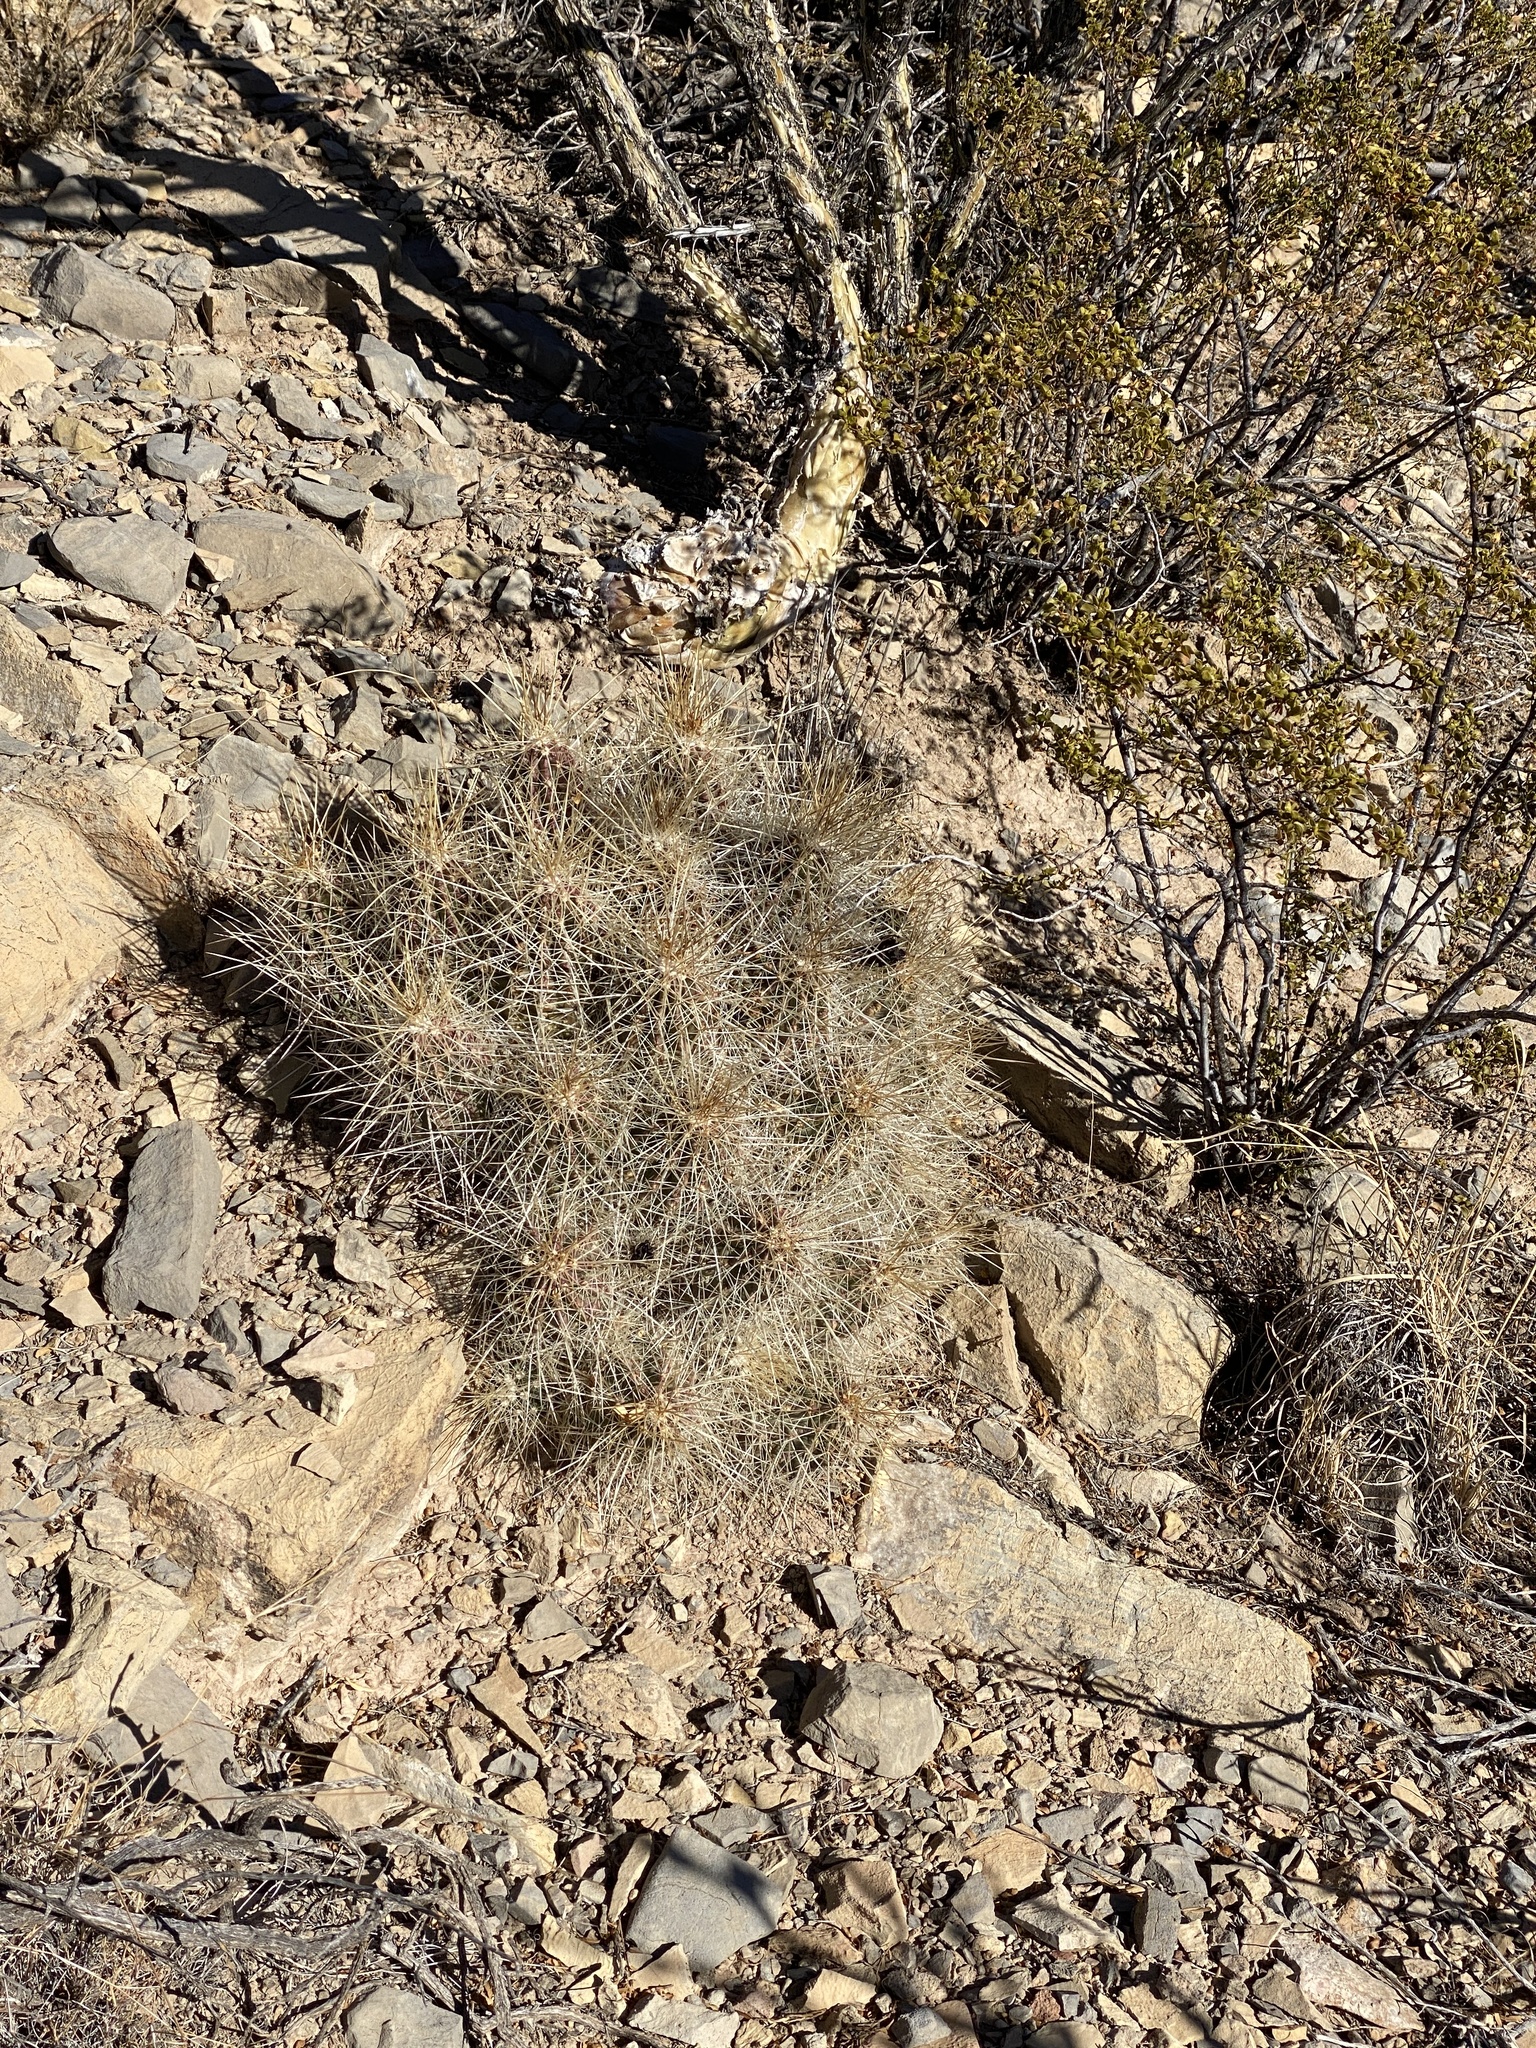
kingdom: Plantae
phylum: Tracheophyta
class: Magnoliopsida
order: Caryophyllales
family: Cactaceae
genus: Echinocereus
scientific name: Echinocereus stramineus
